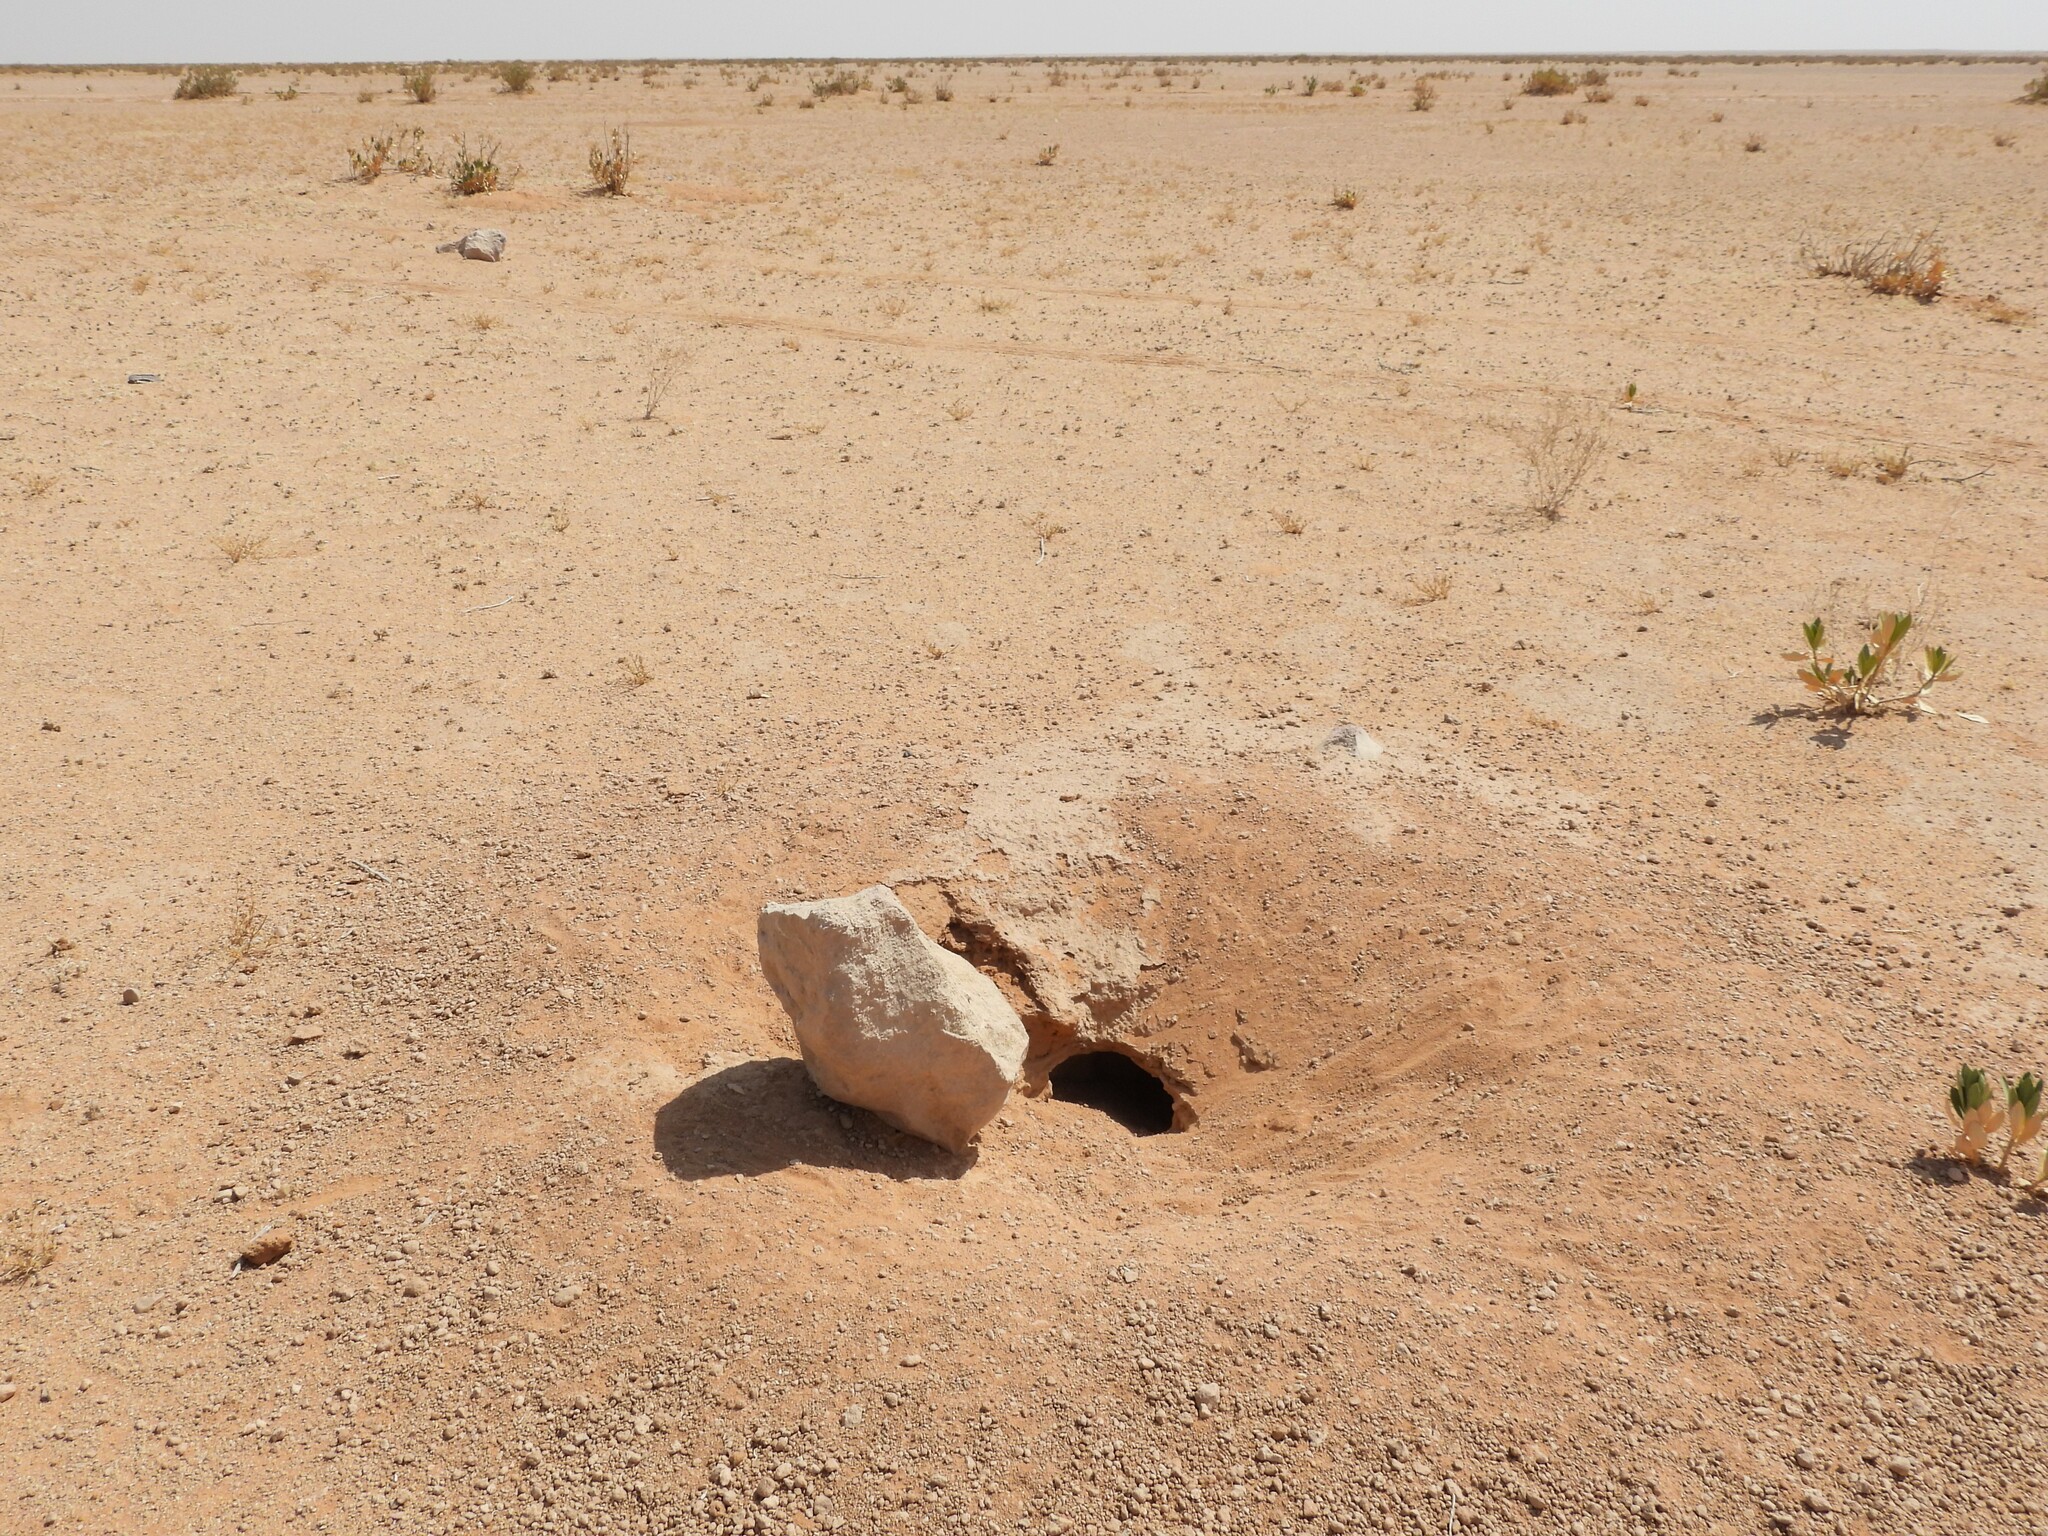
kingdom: Animalia
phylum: Chordata
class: Squamata
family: Agamidae
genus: Uromastyx
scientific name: Uromastyx aegyptia
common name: Egyptian mastigure
